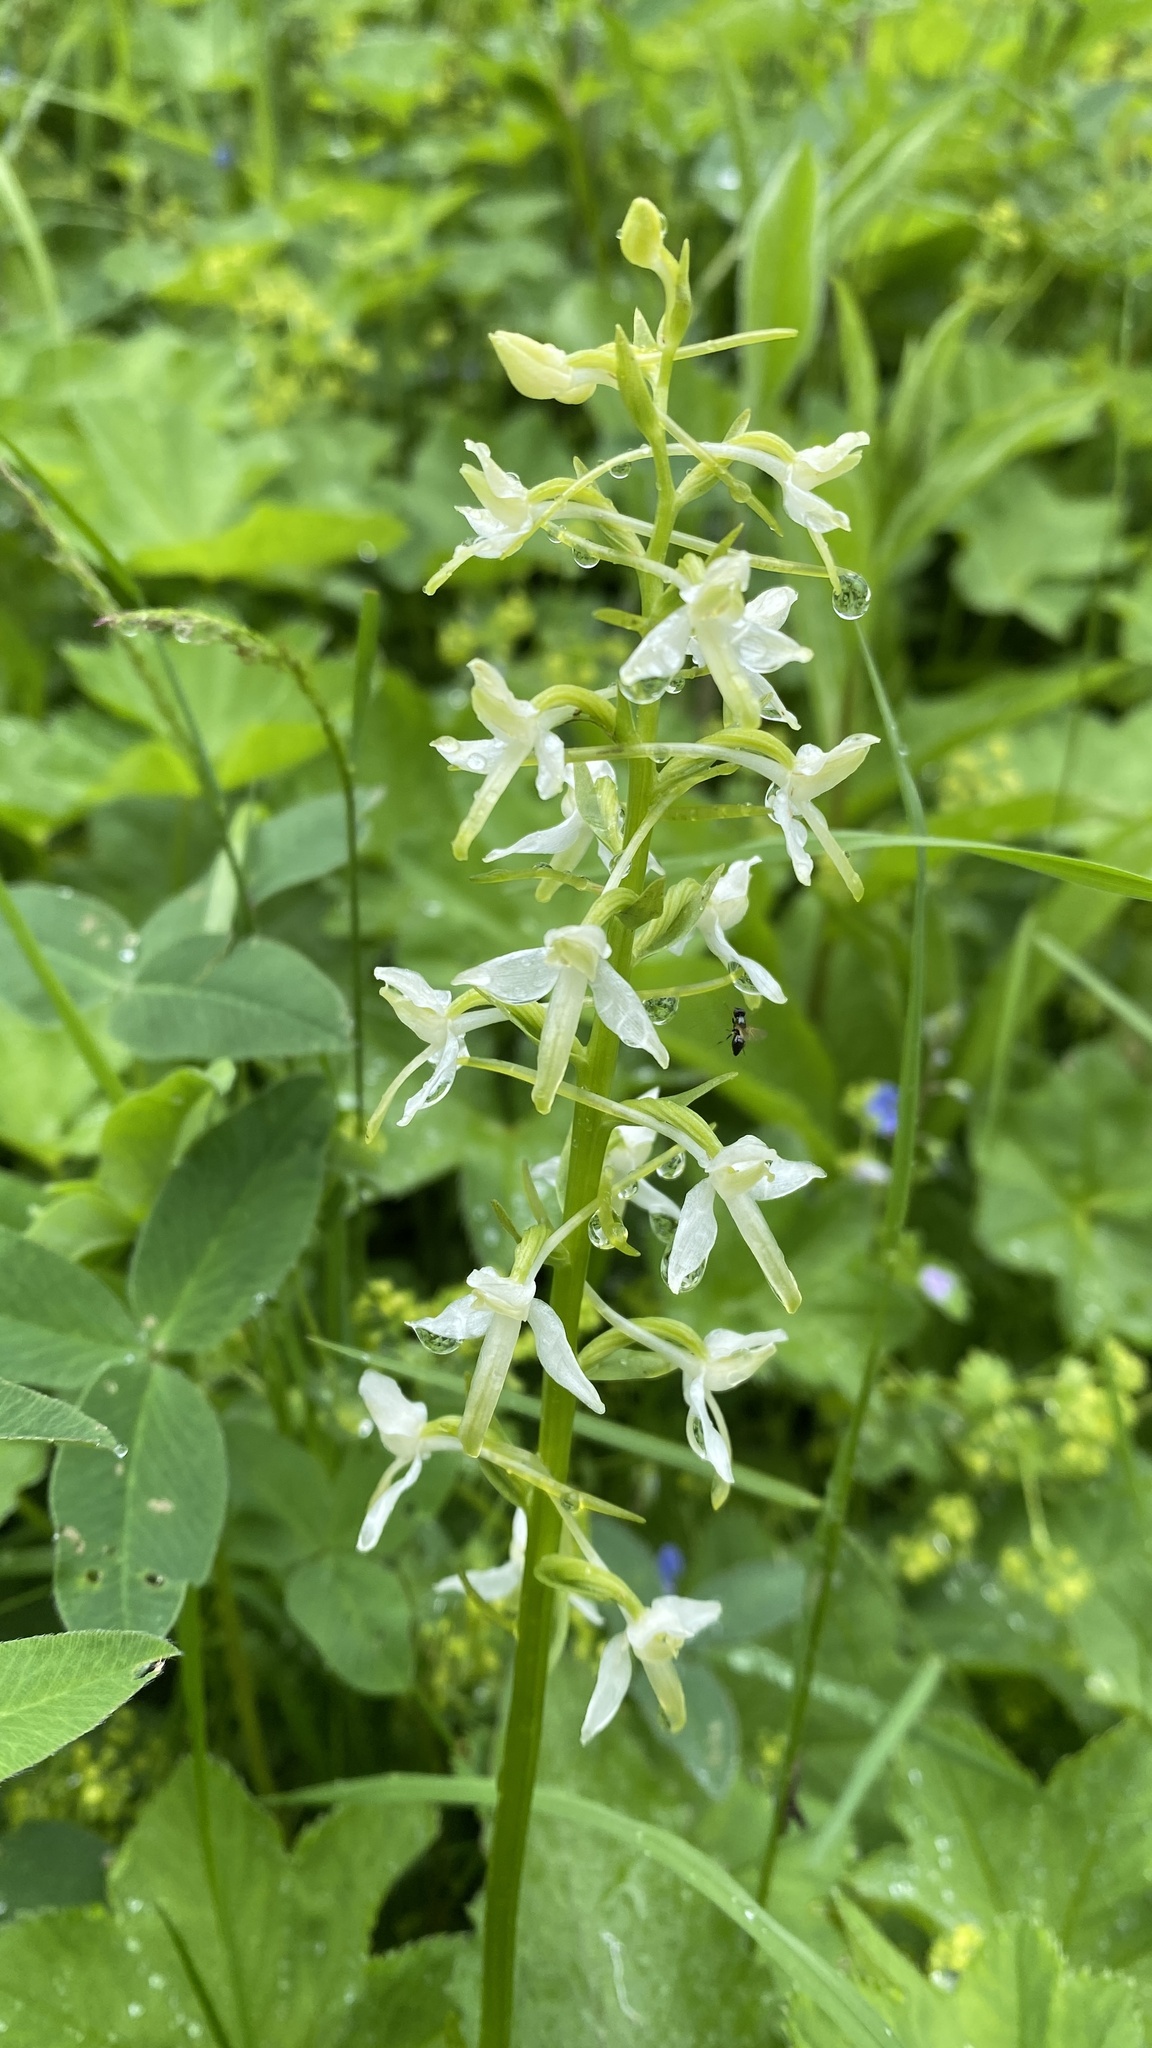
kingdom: Plantae
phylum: Tracheophyta
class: Liliopsida
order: Asparagales
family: Orchidaceae
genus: Platanthera
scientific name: Platanthera bifolia
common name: Lesser butterfly-orchid
